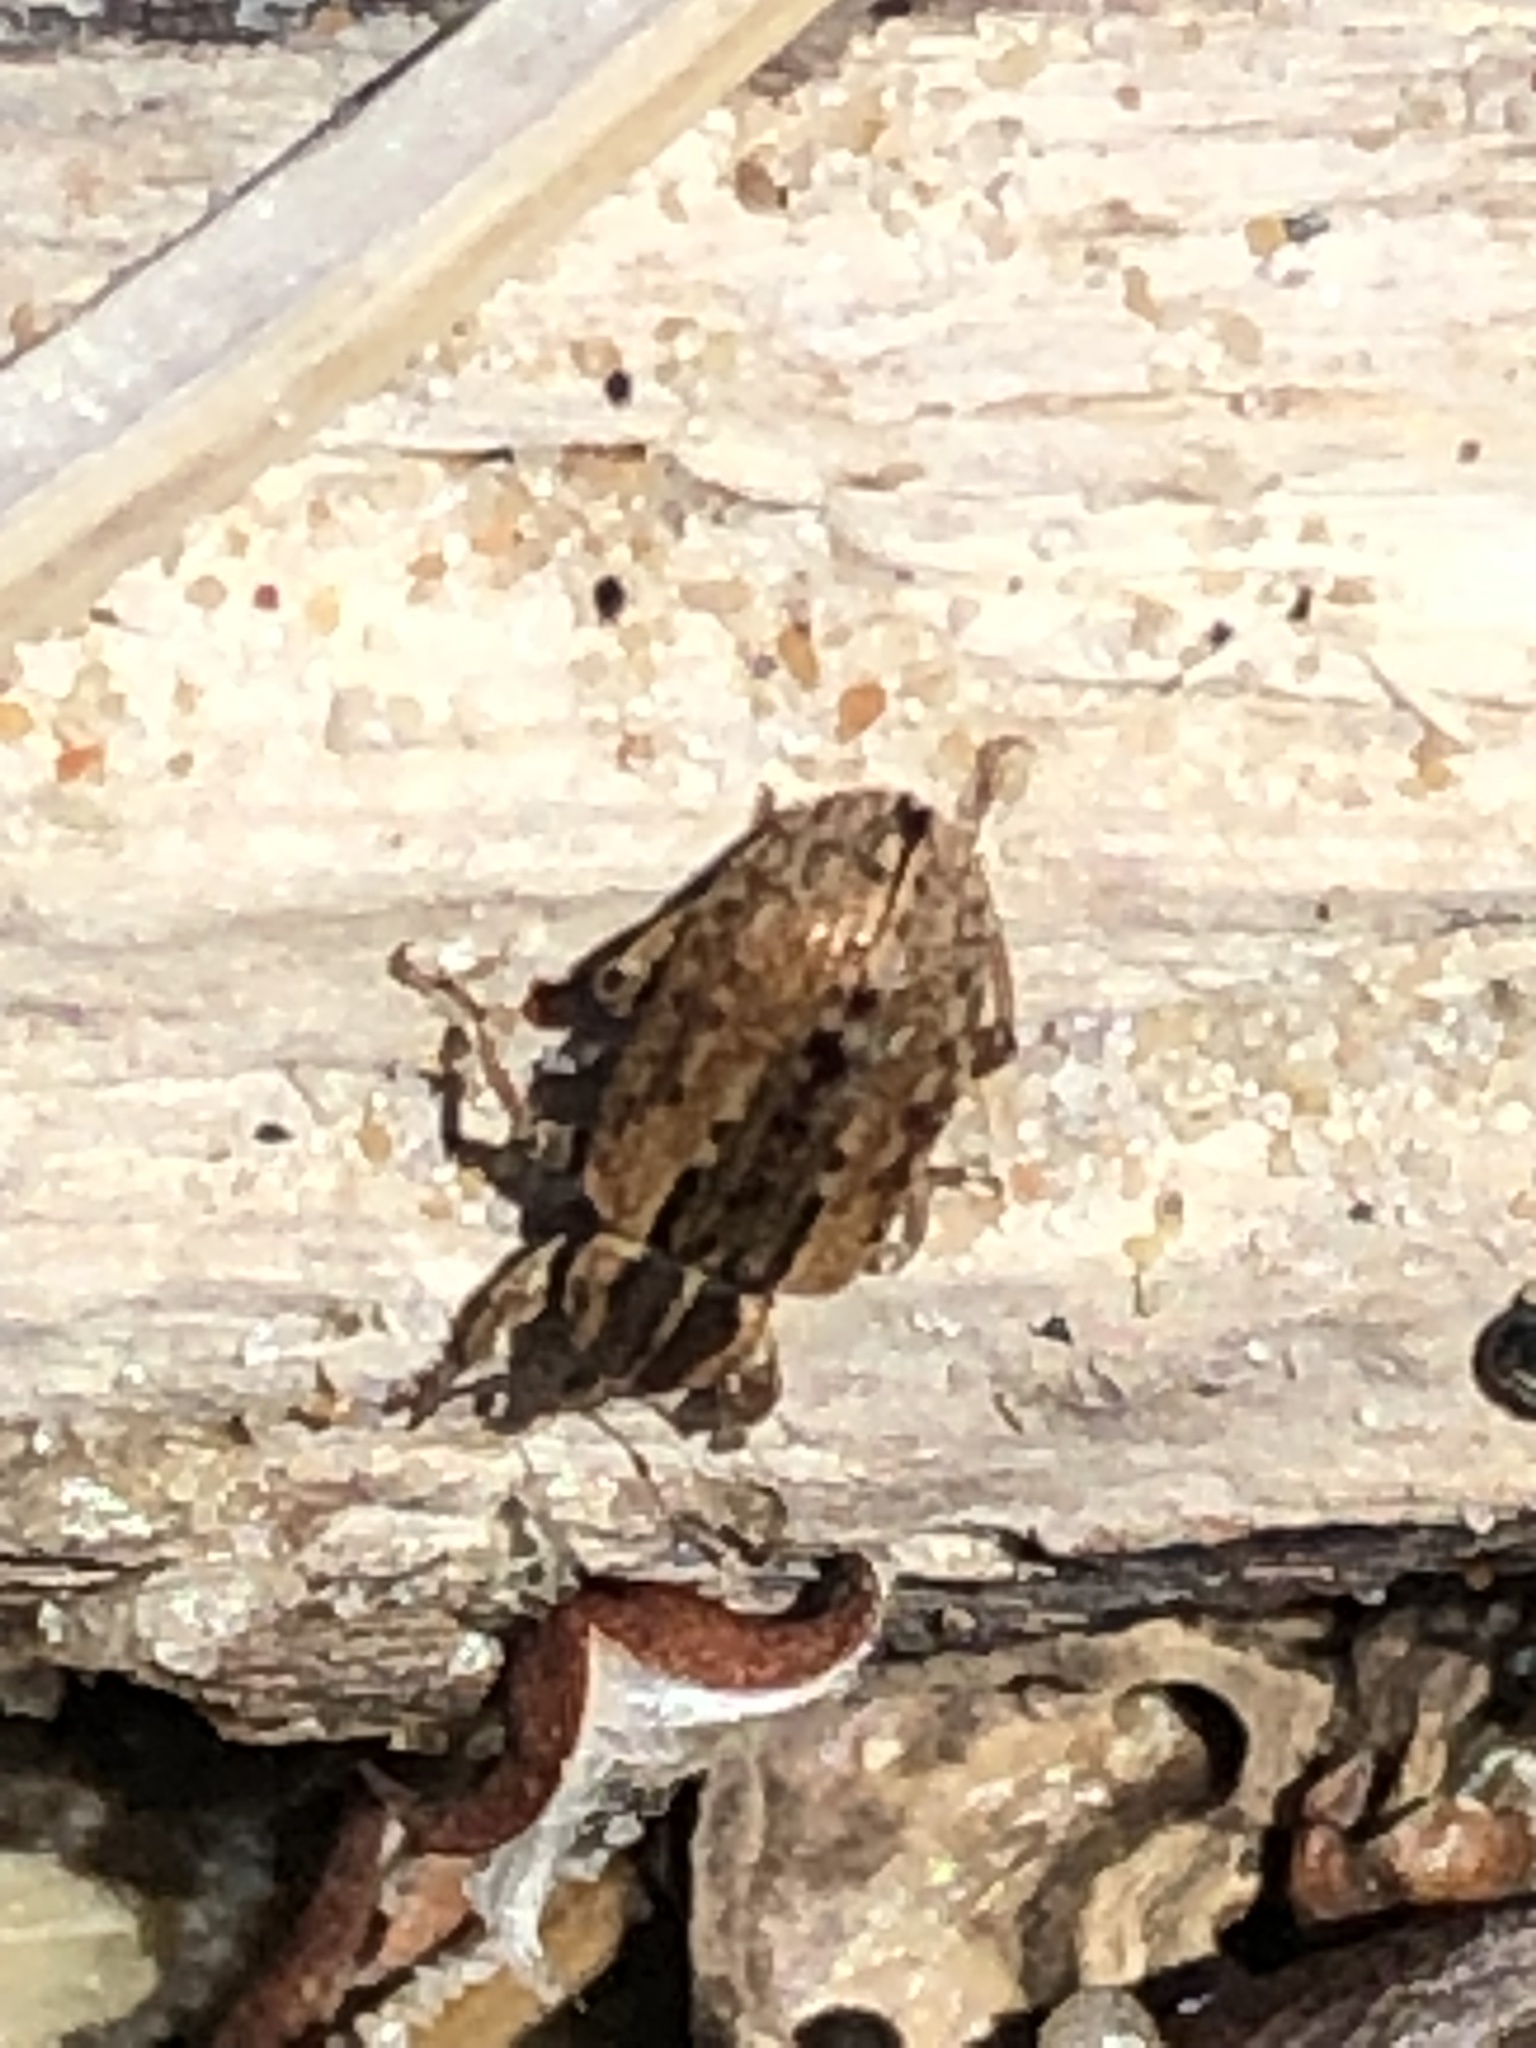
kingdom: Animalia
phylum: Arthropoda
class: Insecta
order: Coleoptera
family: Curculionidae
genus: Hypera
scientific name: Hypera postica
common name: Weevil
